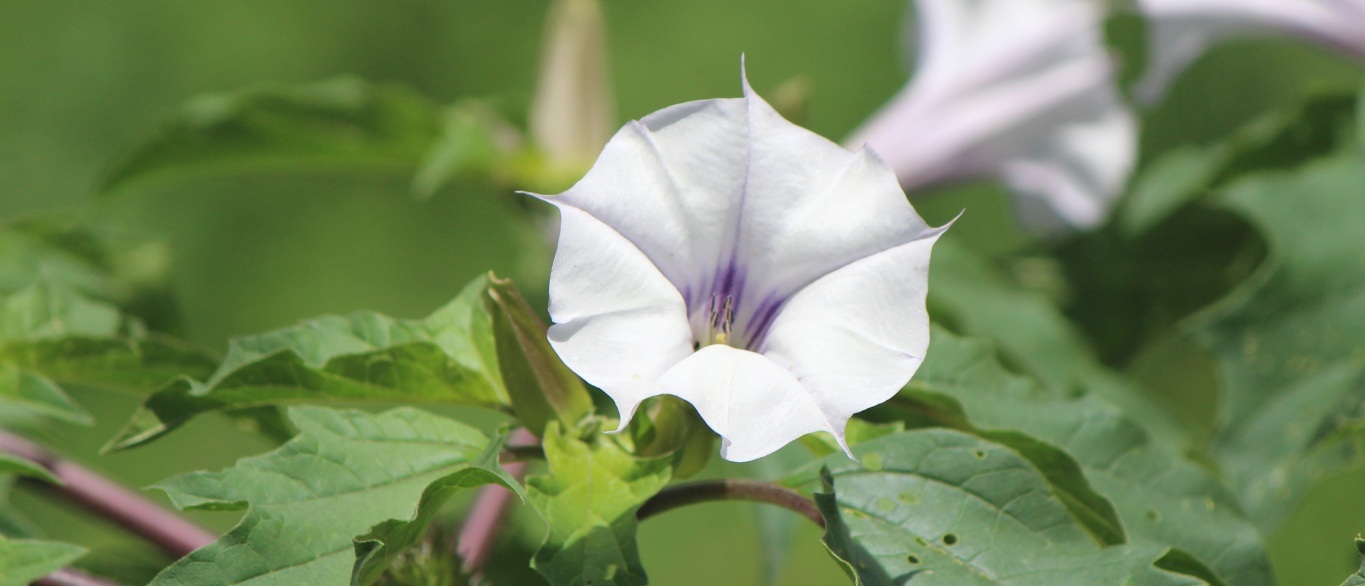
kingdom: Plantae
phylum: Tracheophyta
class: Magnoliopsida
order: Solanales
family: Solanaceae
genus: Datura
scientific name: Datura stramonium
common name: Thorn-apple
